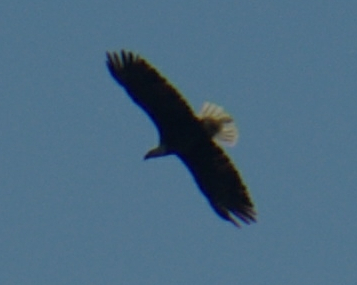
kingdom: Animalia
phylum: Chordata
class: Aves
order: Accipitriformes
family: Accipitridae
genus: Haliaeetus
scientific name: Haliaeetus leucocephalus
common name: Bald eagle
